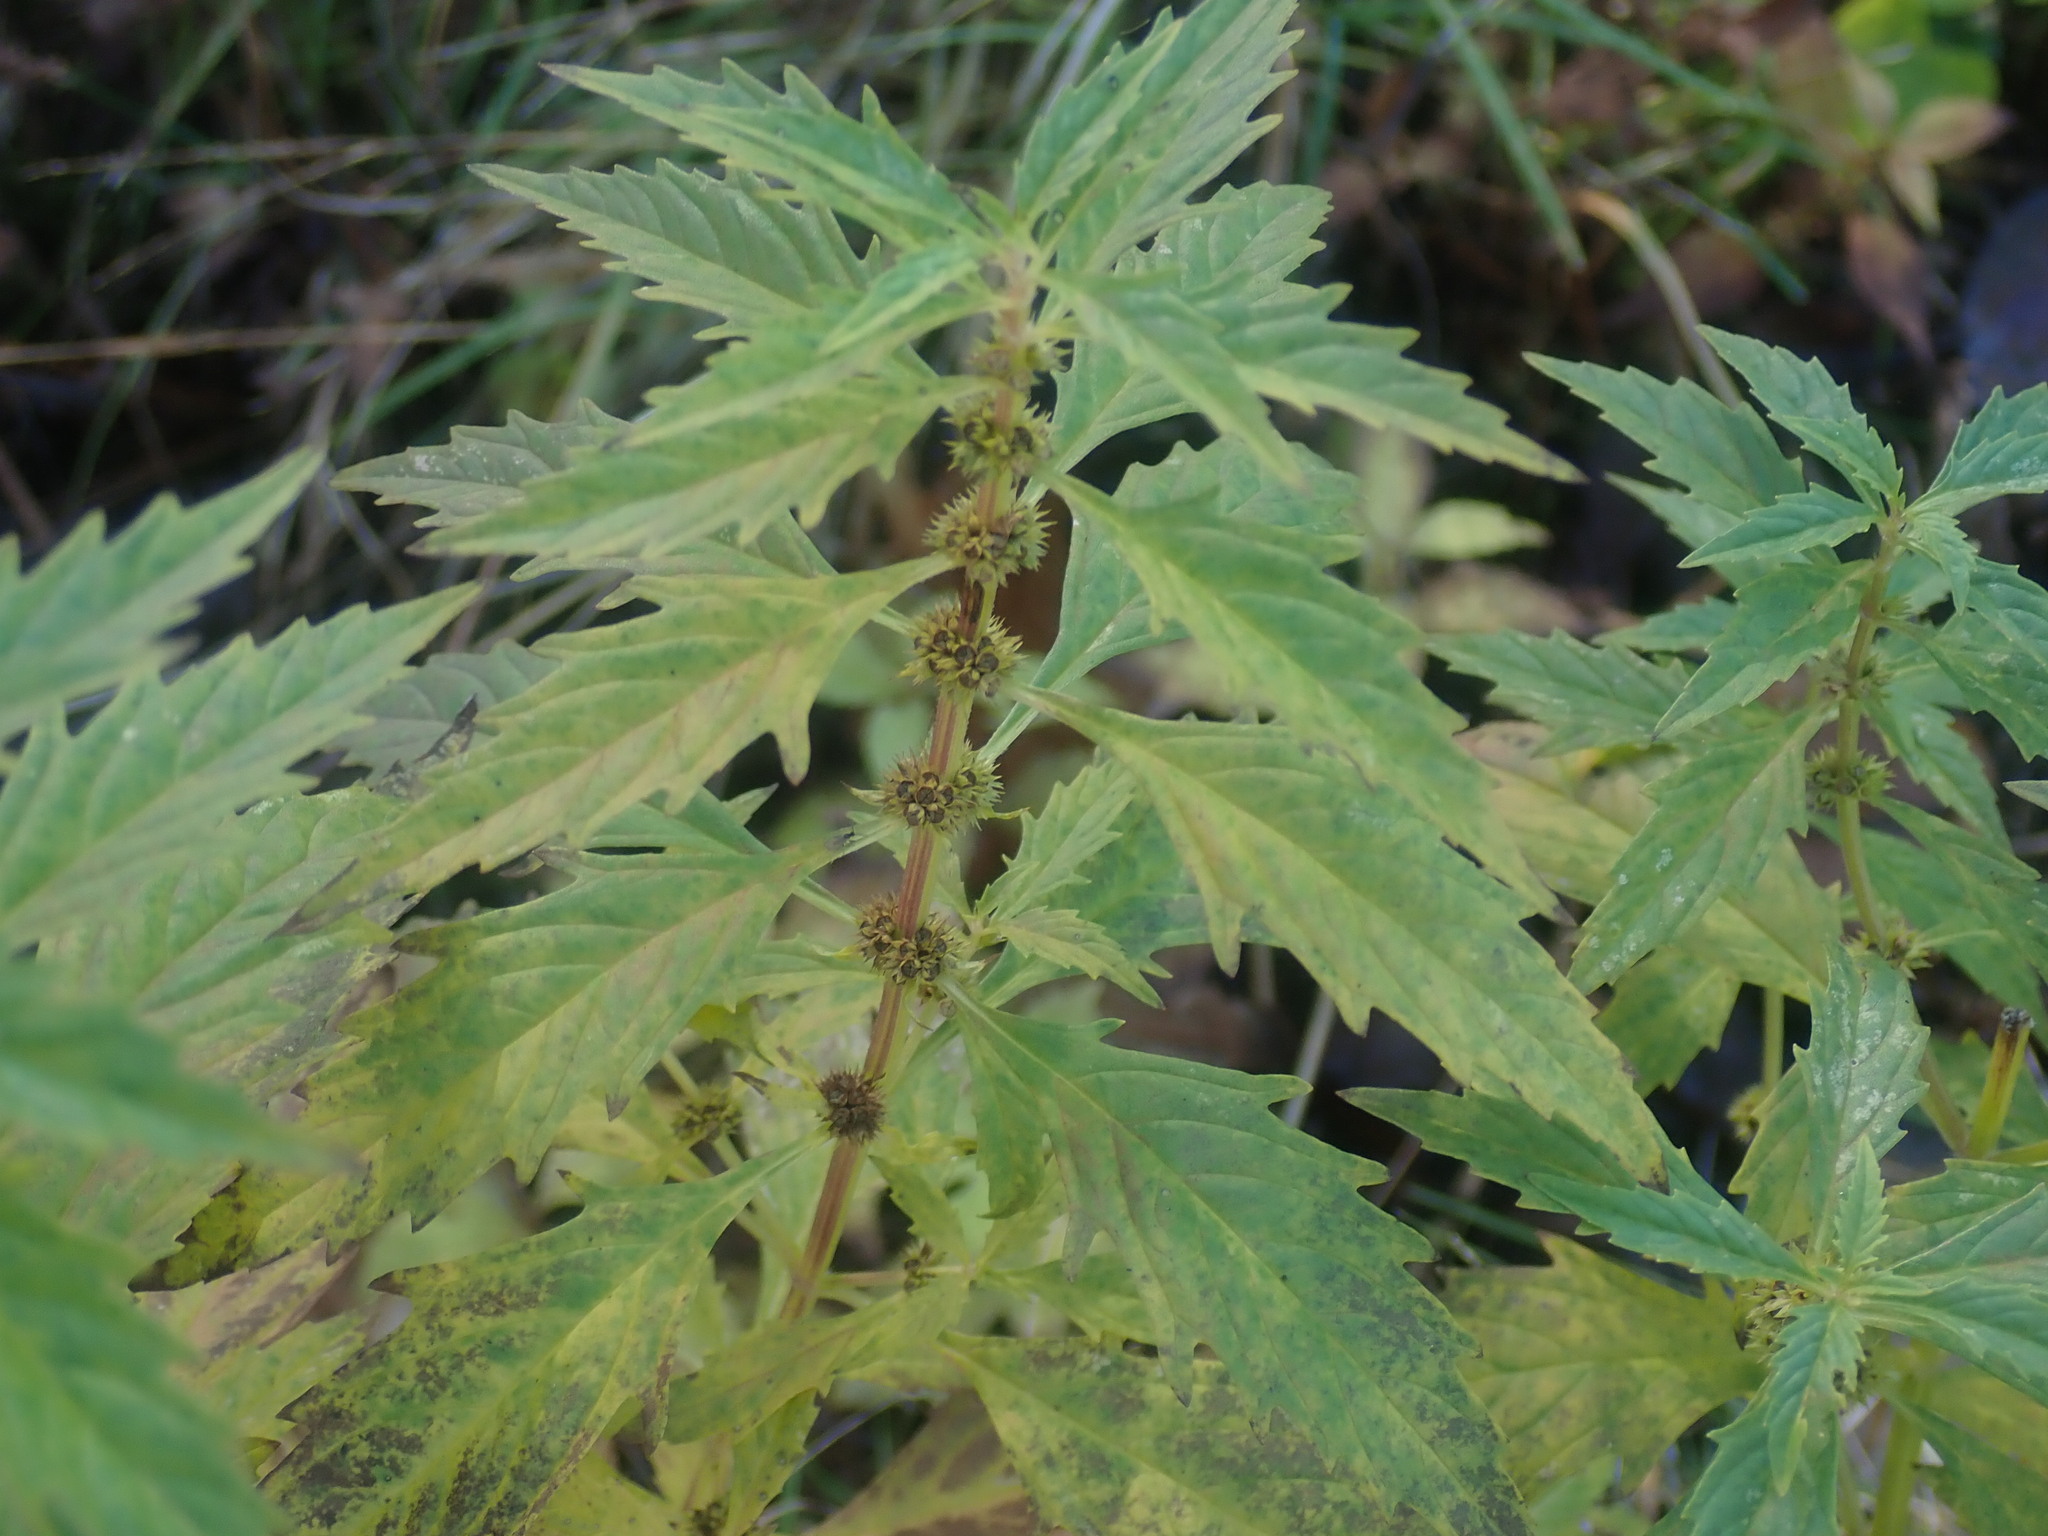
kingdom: Plantae
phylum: Tracheophyta
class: Magnoliopsida
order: Lamiales
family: Lamiaceae
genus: Lycopus
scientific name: Lycopus americanus
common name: American bugleweed
